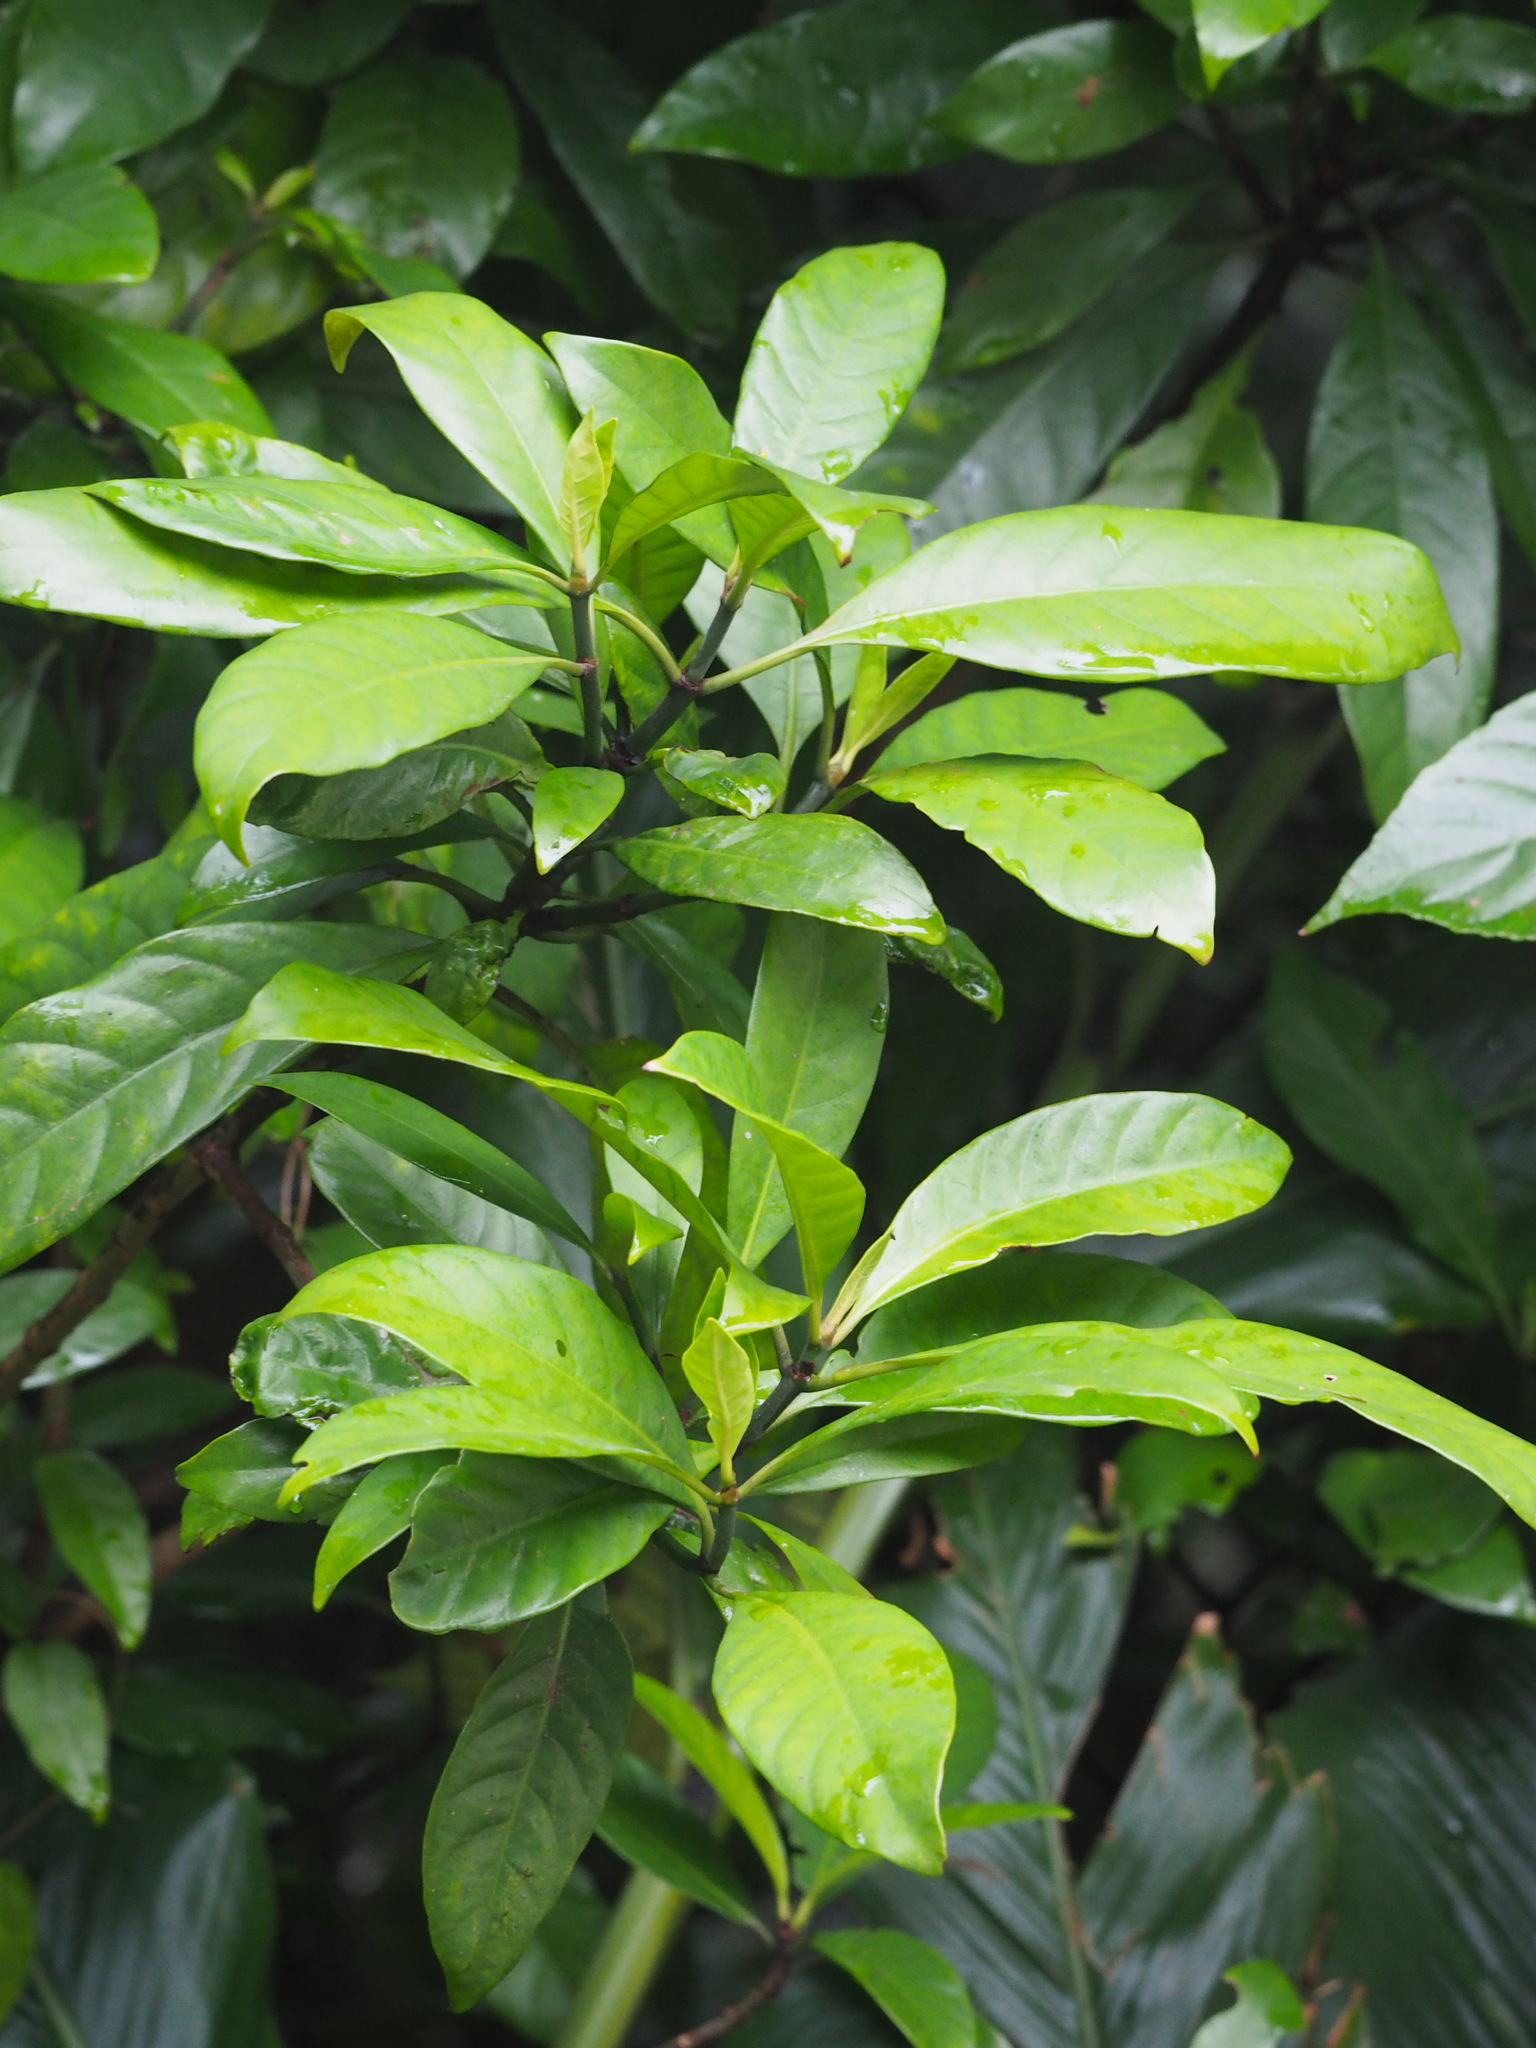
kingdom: Plantae
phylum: Tracheophyta
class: Magnoliopsida
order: Gentianales
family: Rubiaceae
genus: Psychotria
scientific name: Psychotria asiatica
